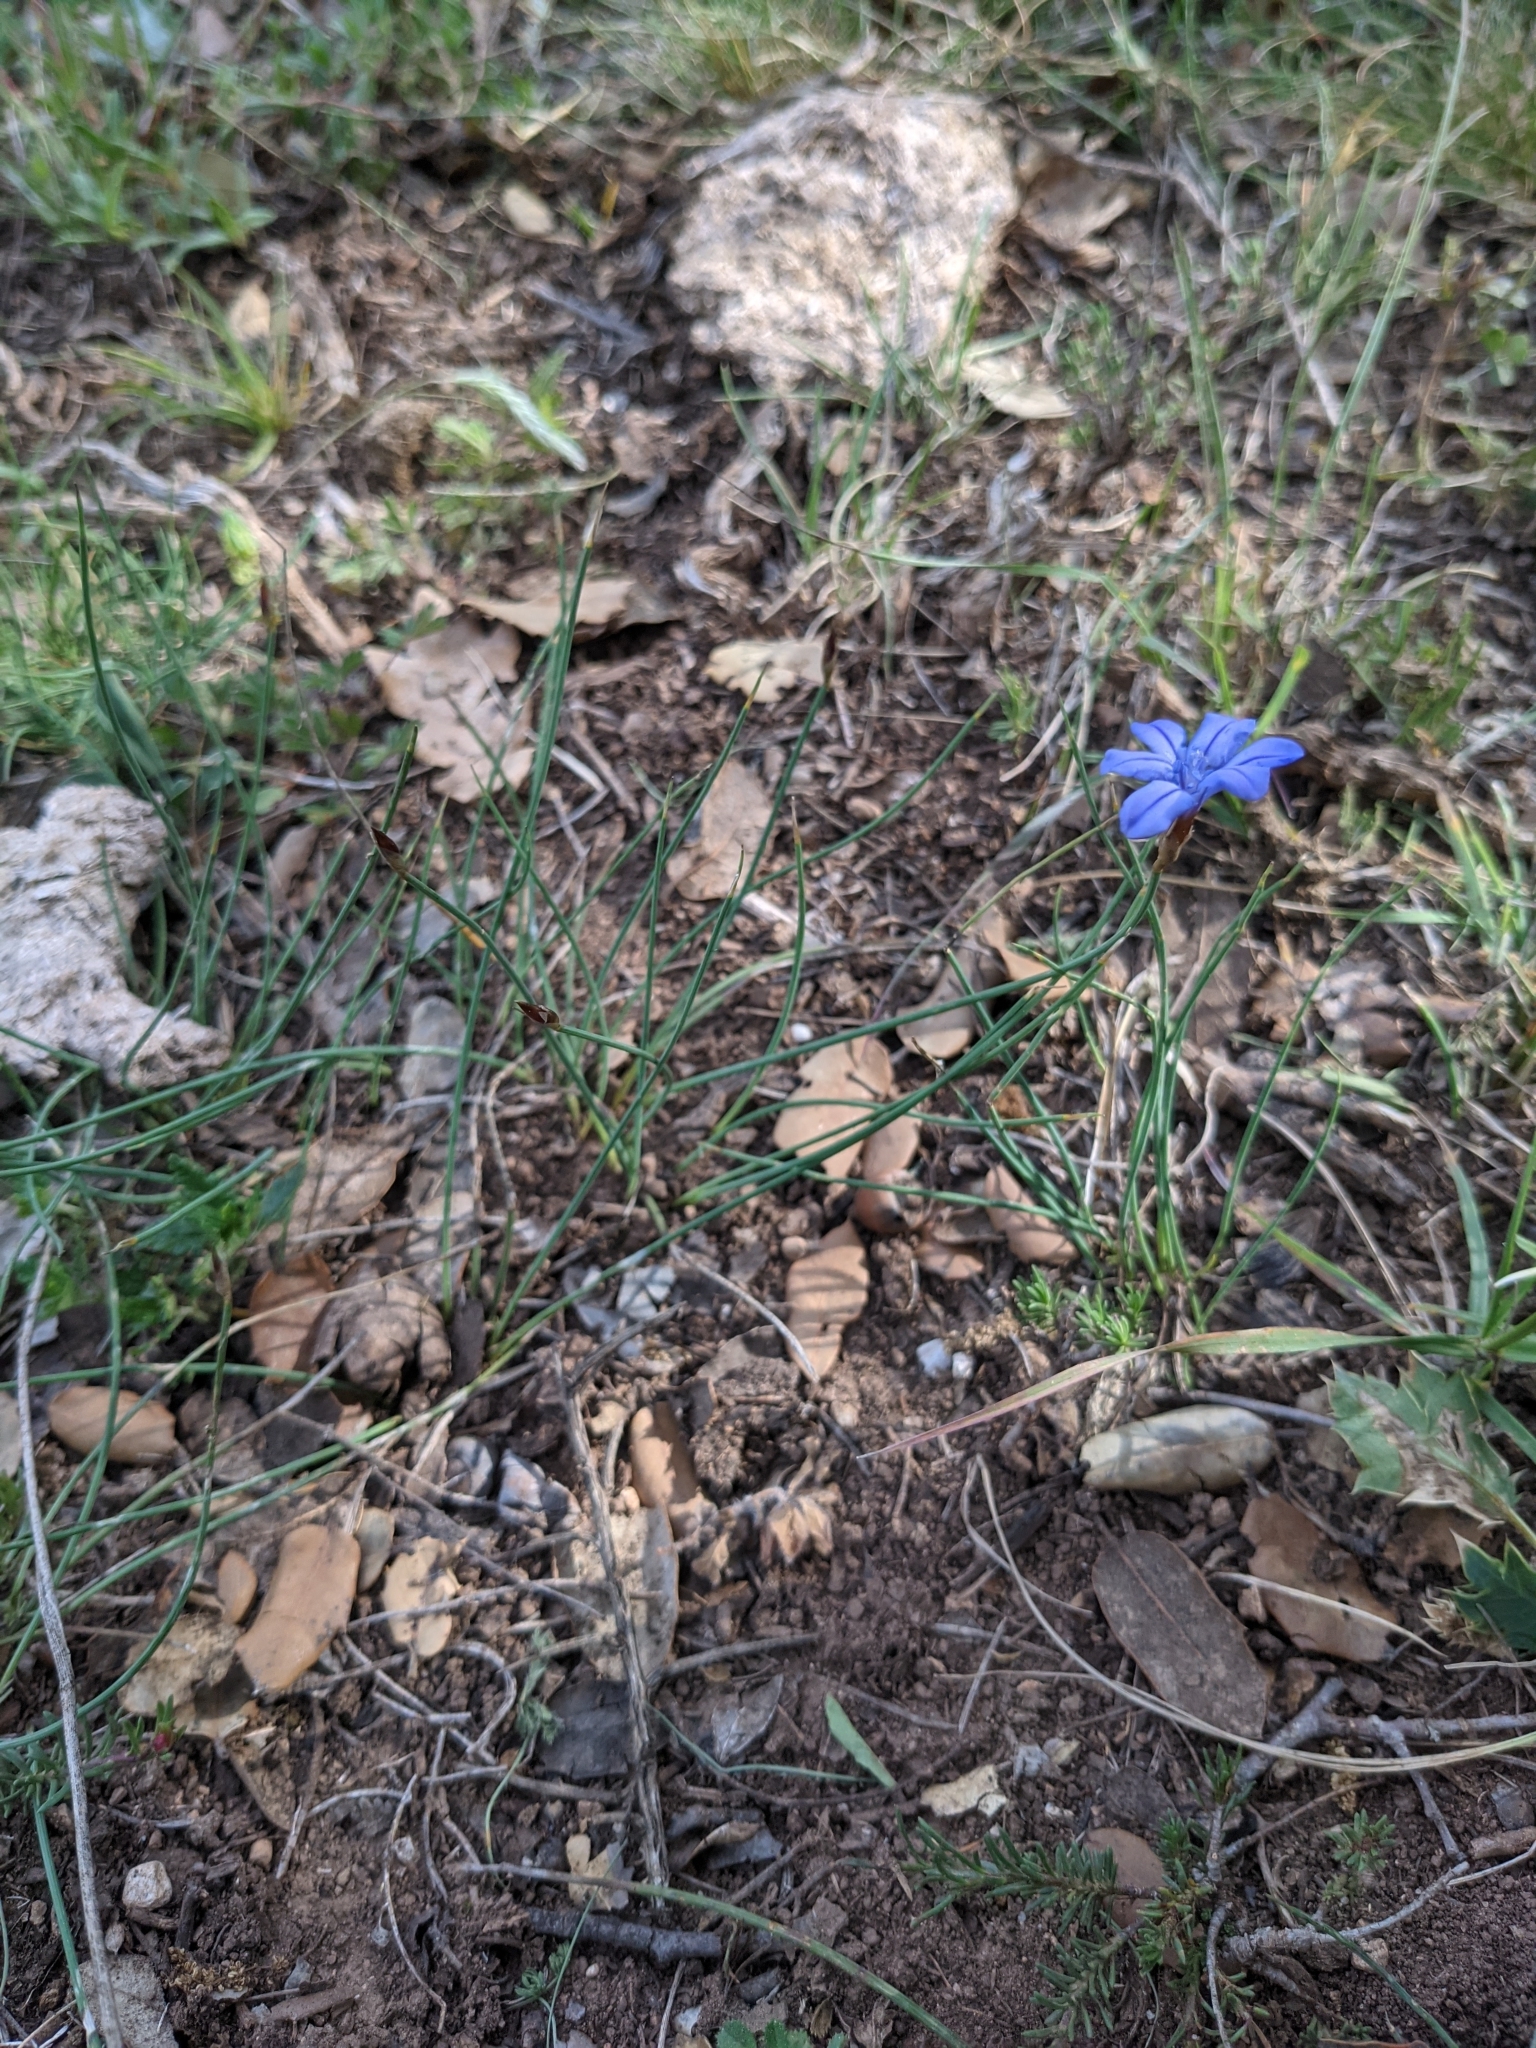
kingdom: Plantae
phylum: Tracheophyta
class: Liliopsida
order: Asparagales
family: Asparagaceae
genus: Aphyllanthes
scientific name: Aphyllanthes monspeliensis
